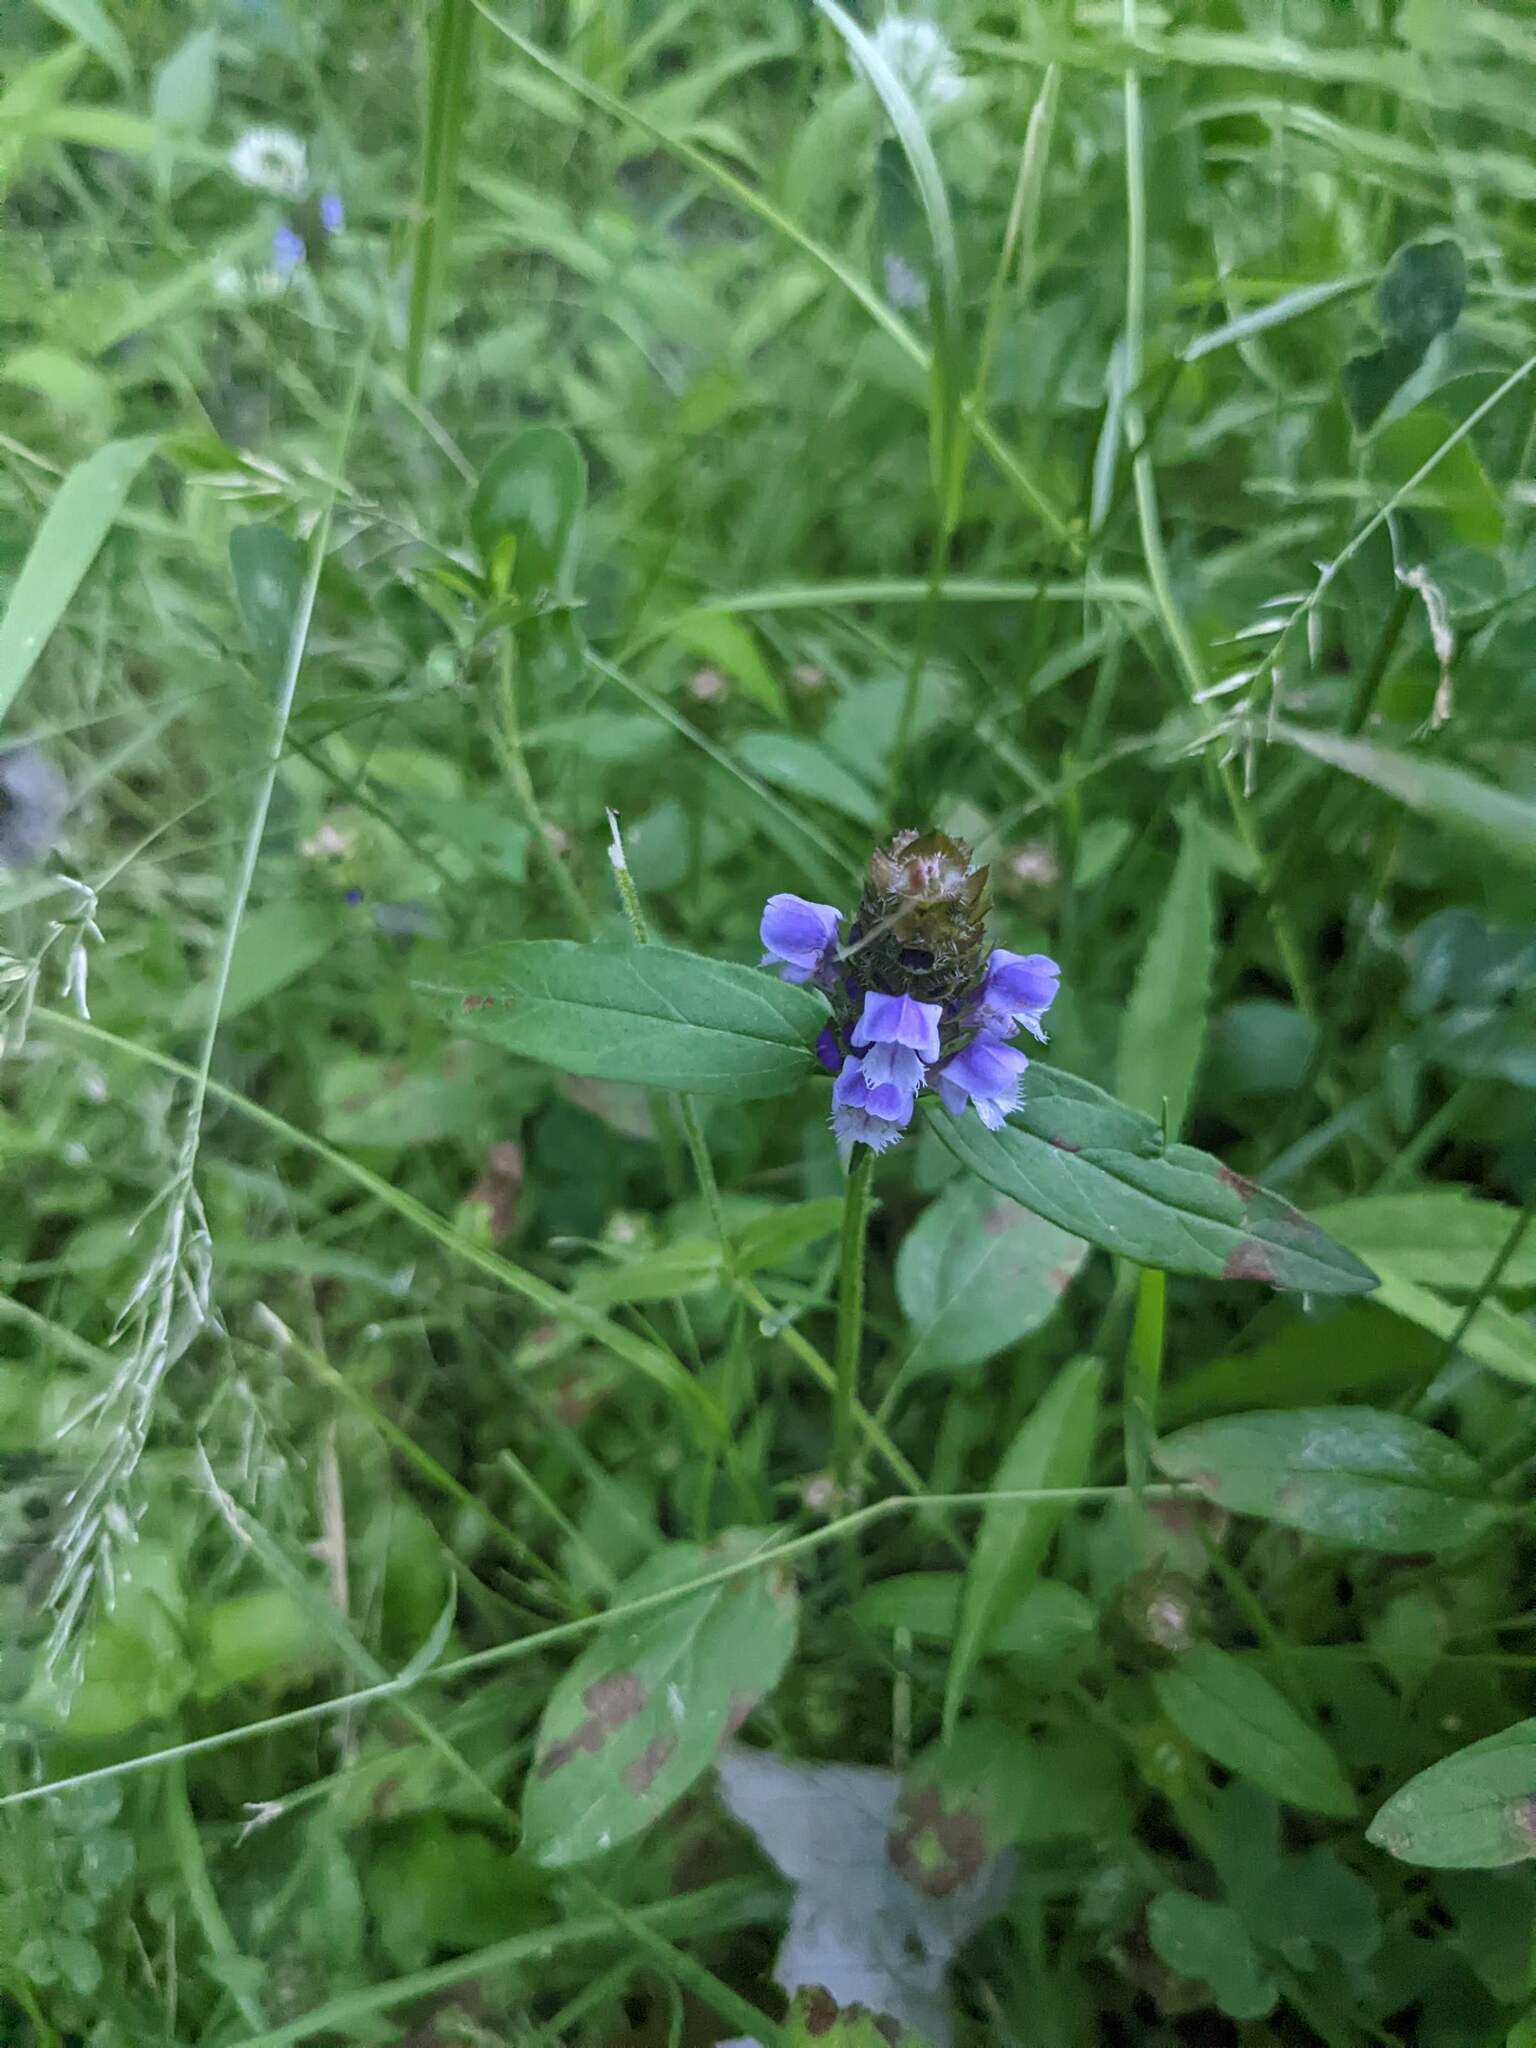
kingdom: Plantae
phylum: Tracheophyta
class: Magnoliopsida
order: Lamiales
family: Lamiaceae
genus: Prunella
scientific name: Prunella vulgaris
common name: Heal-all
